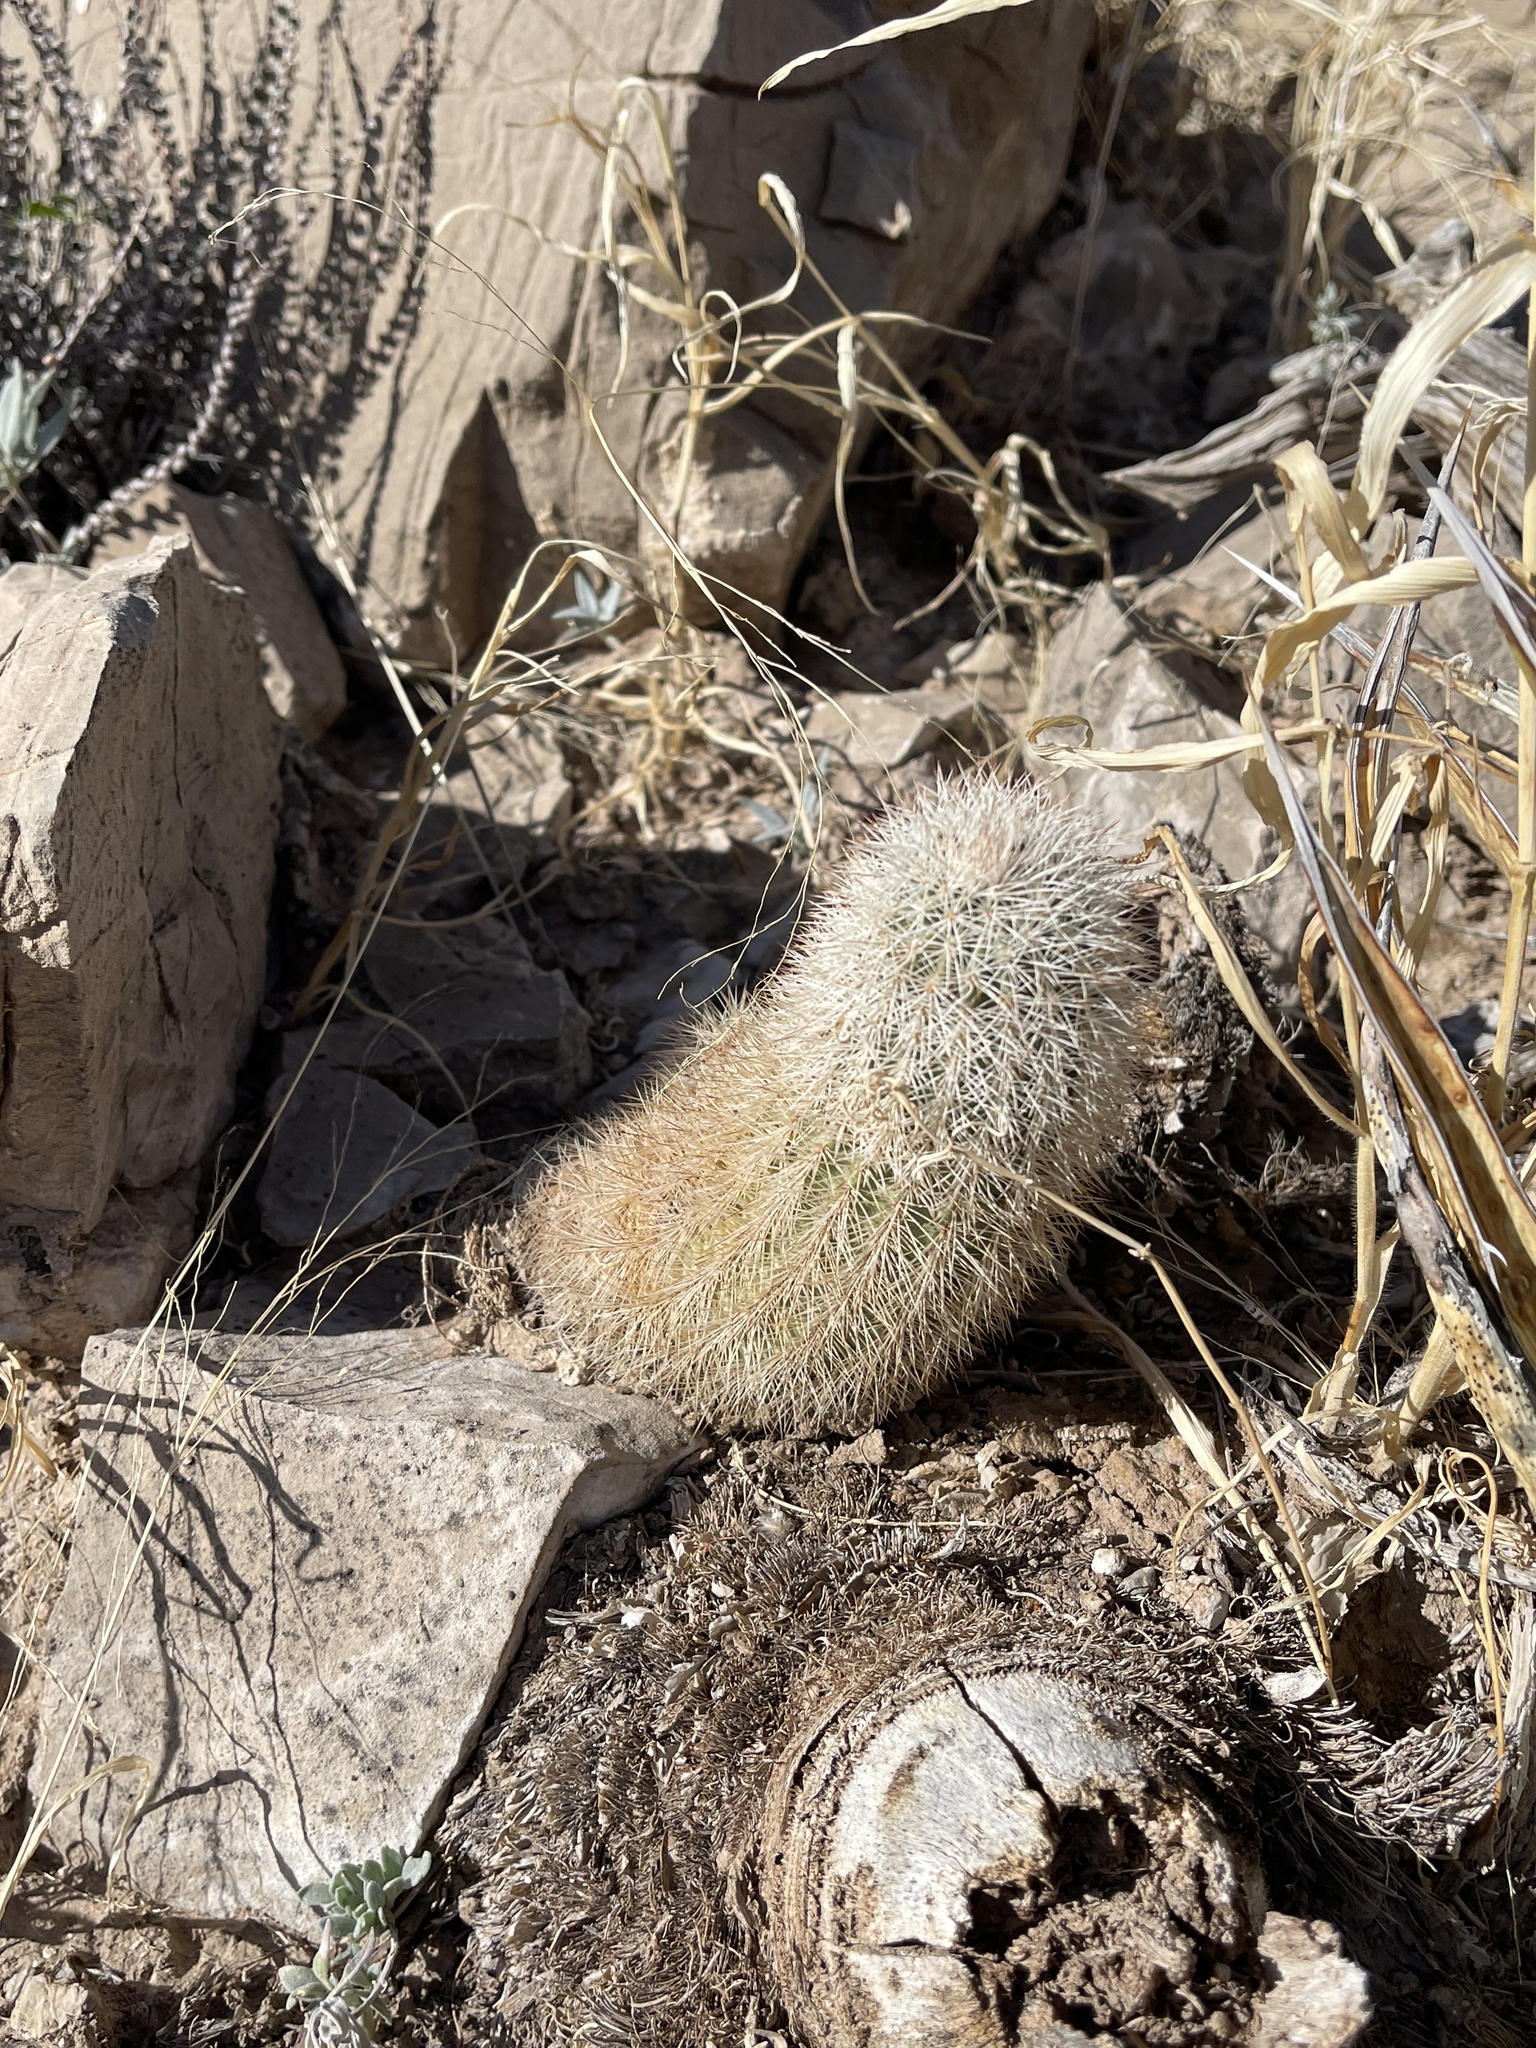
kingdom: Plantae
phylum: Tracheophyta
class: Magnoliopsida
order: Caryophyllales
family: Cactaceae
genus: Echinocereus
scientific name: Echinocereus dasyacanthus
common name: Spiny hedgehog cactus
